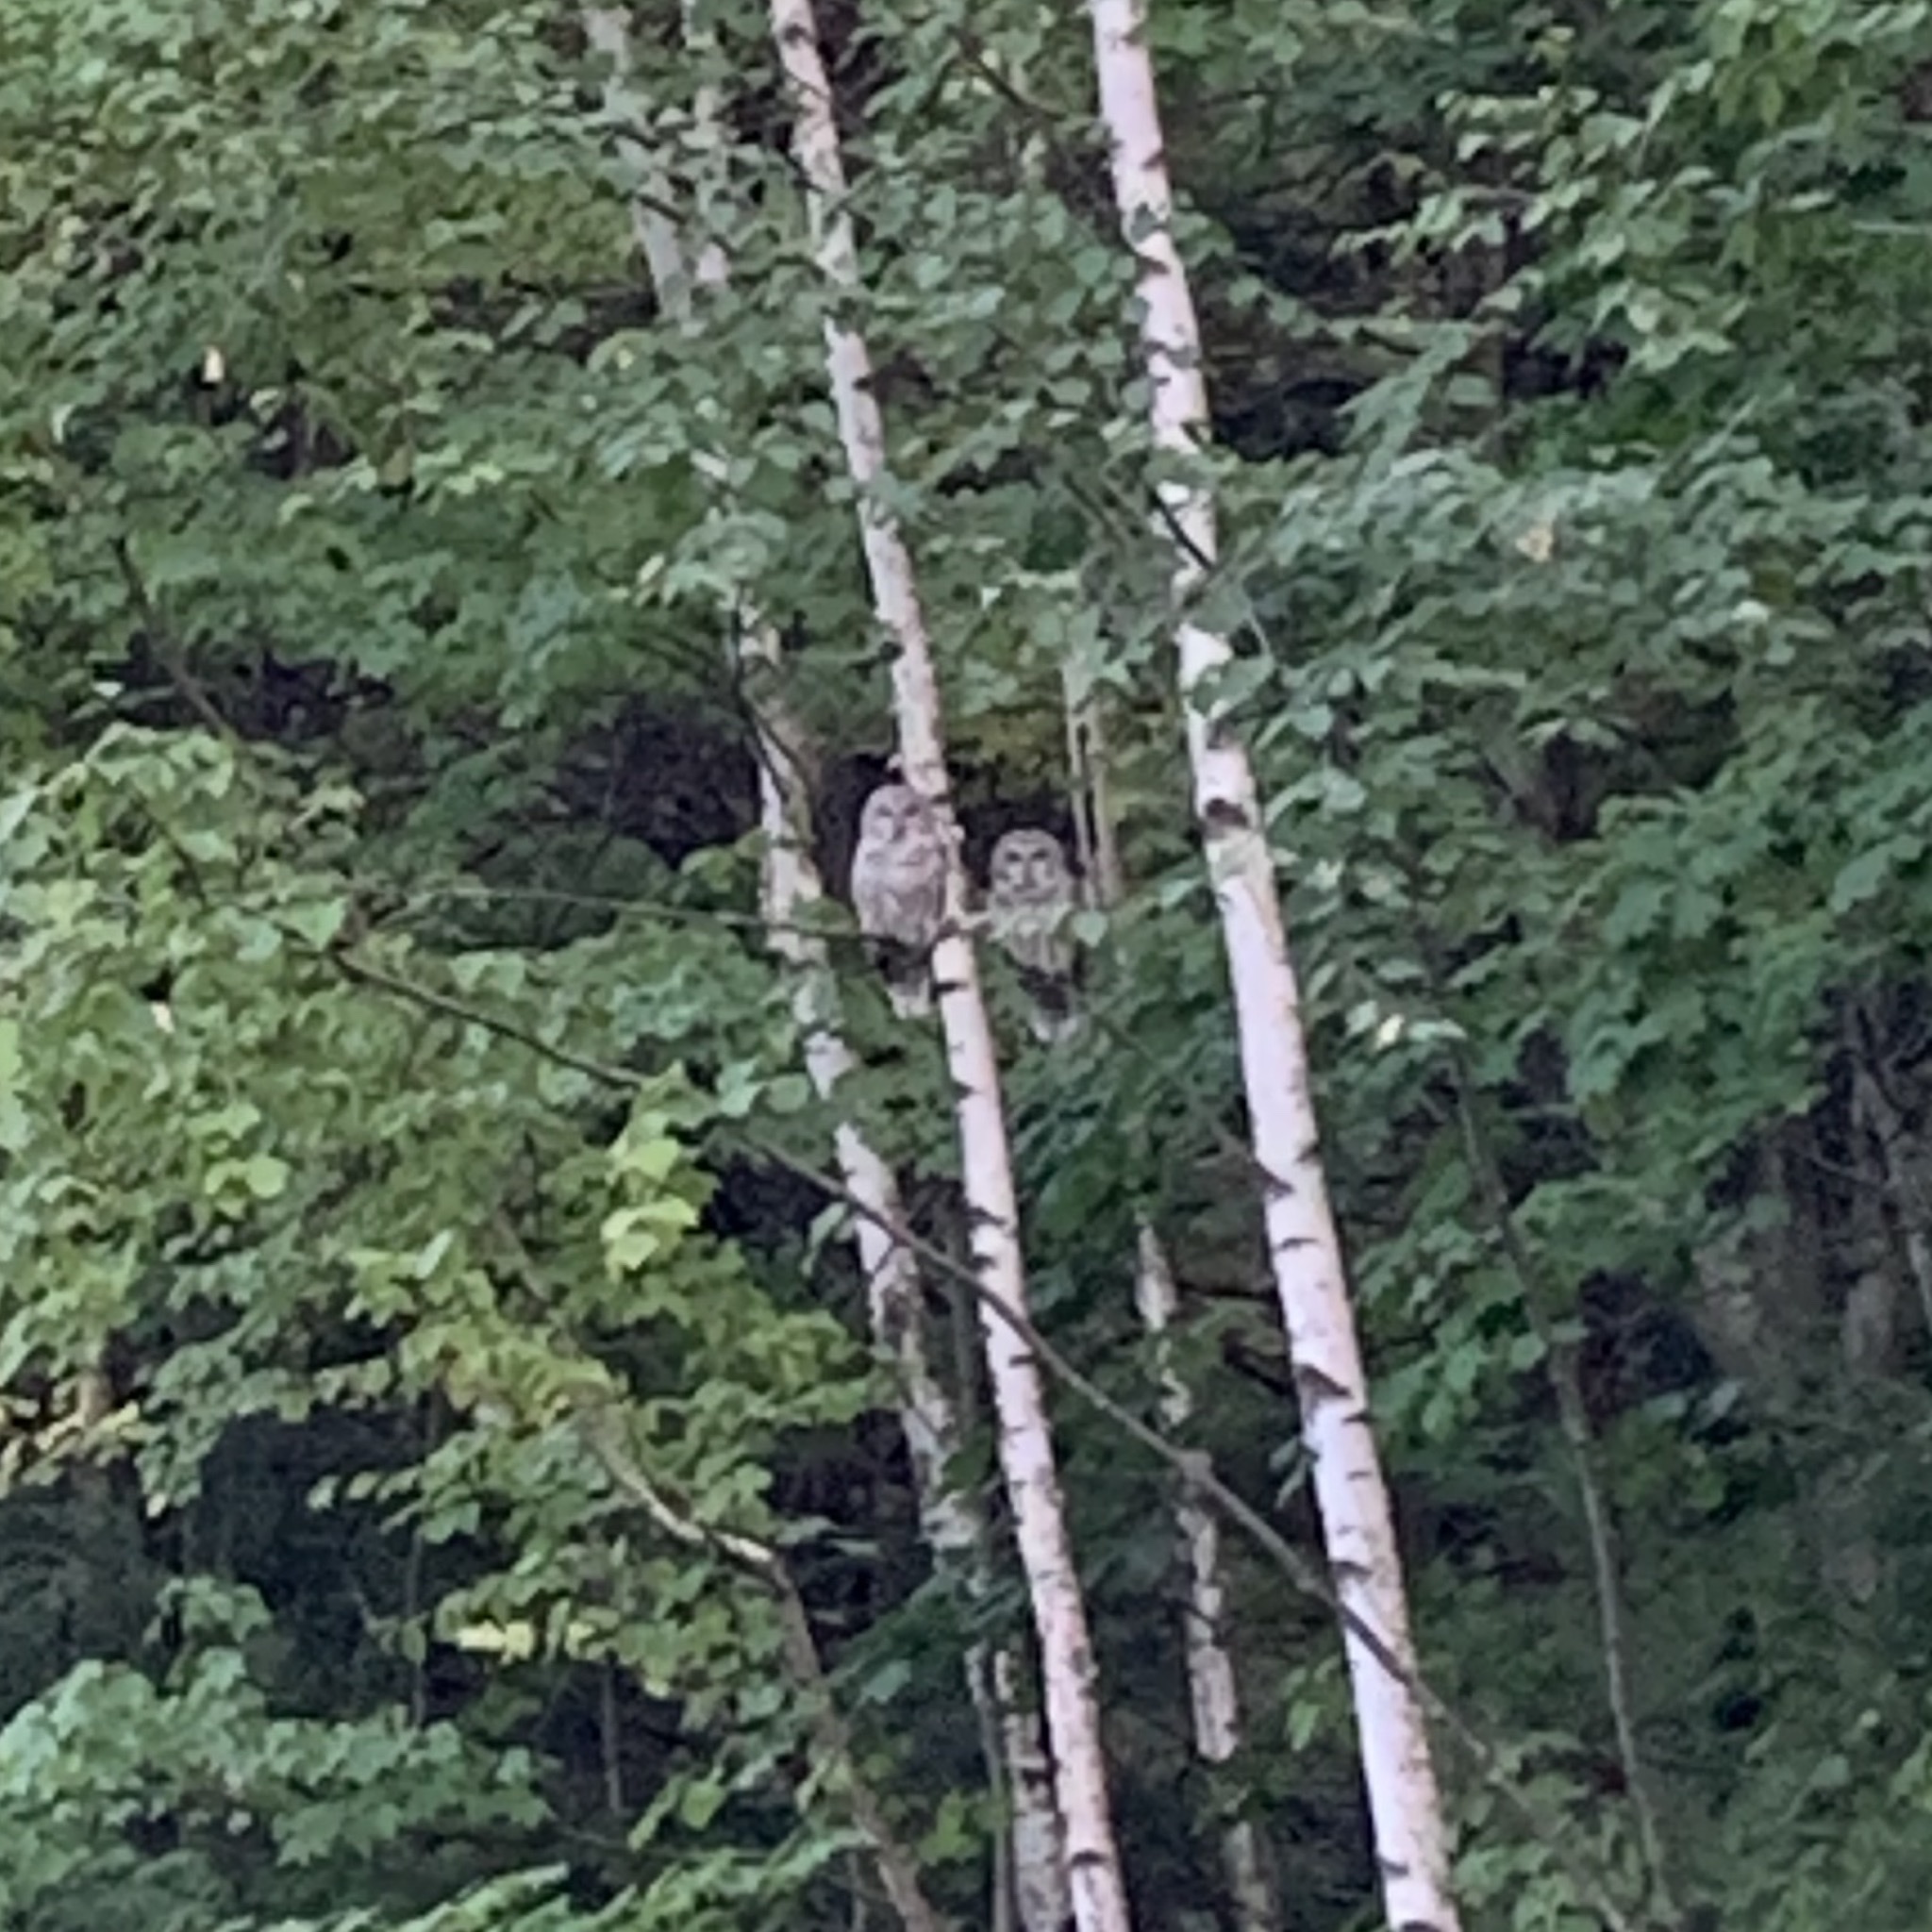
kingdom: Animalia
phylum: Chordata
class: Aves
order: Strigiformes
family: Strigidae
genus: Strix
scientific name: Strix varia
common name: Barred owl
